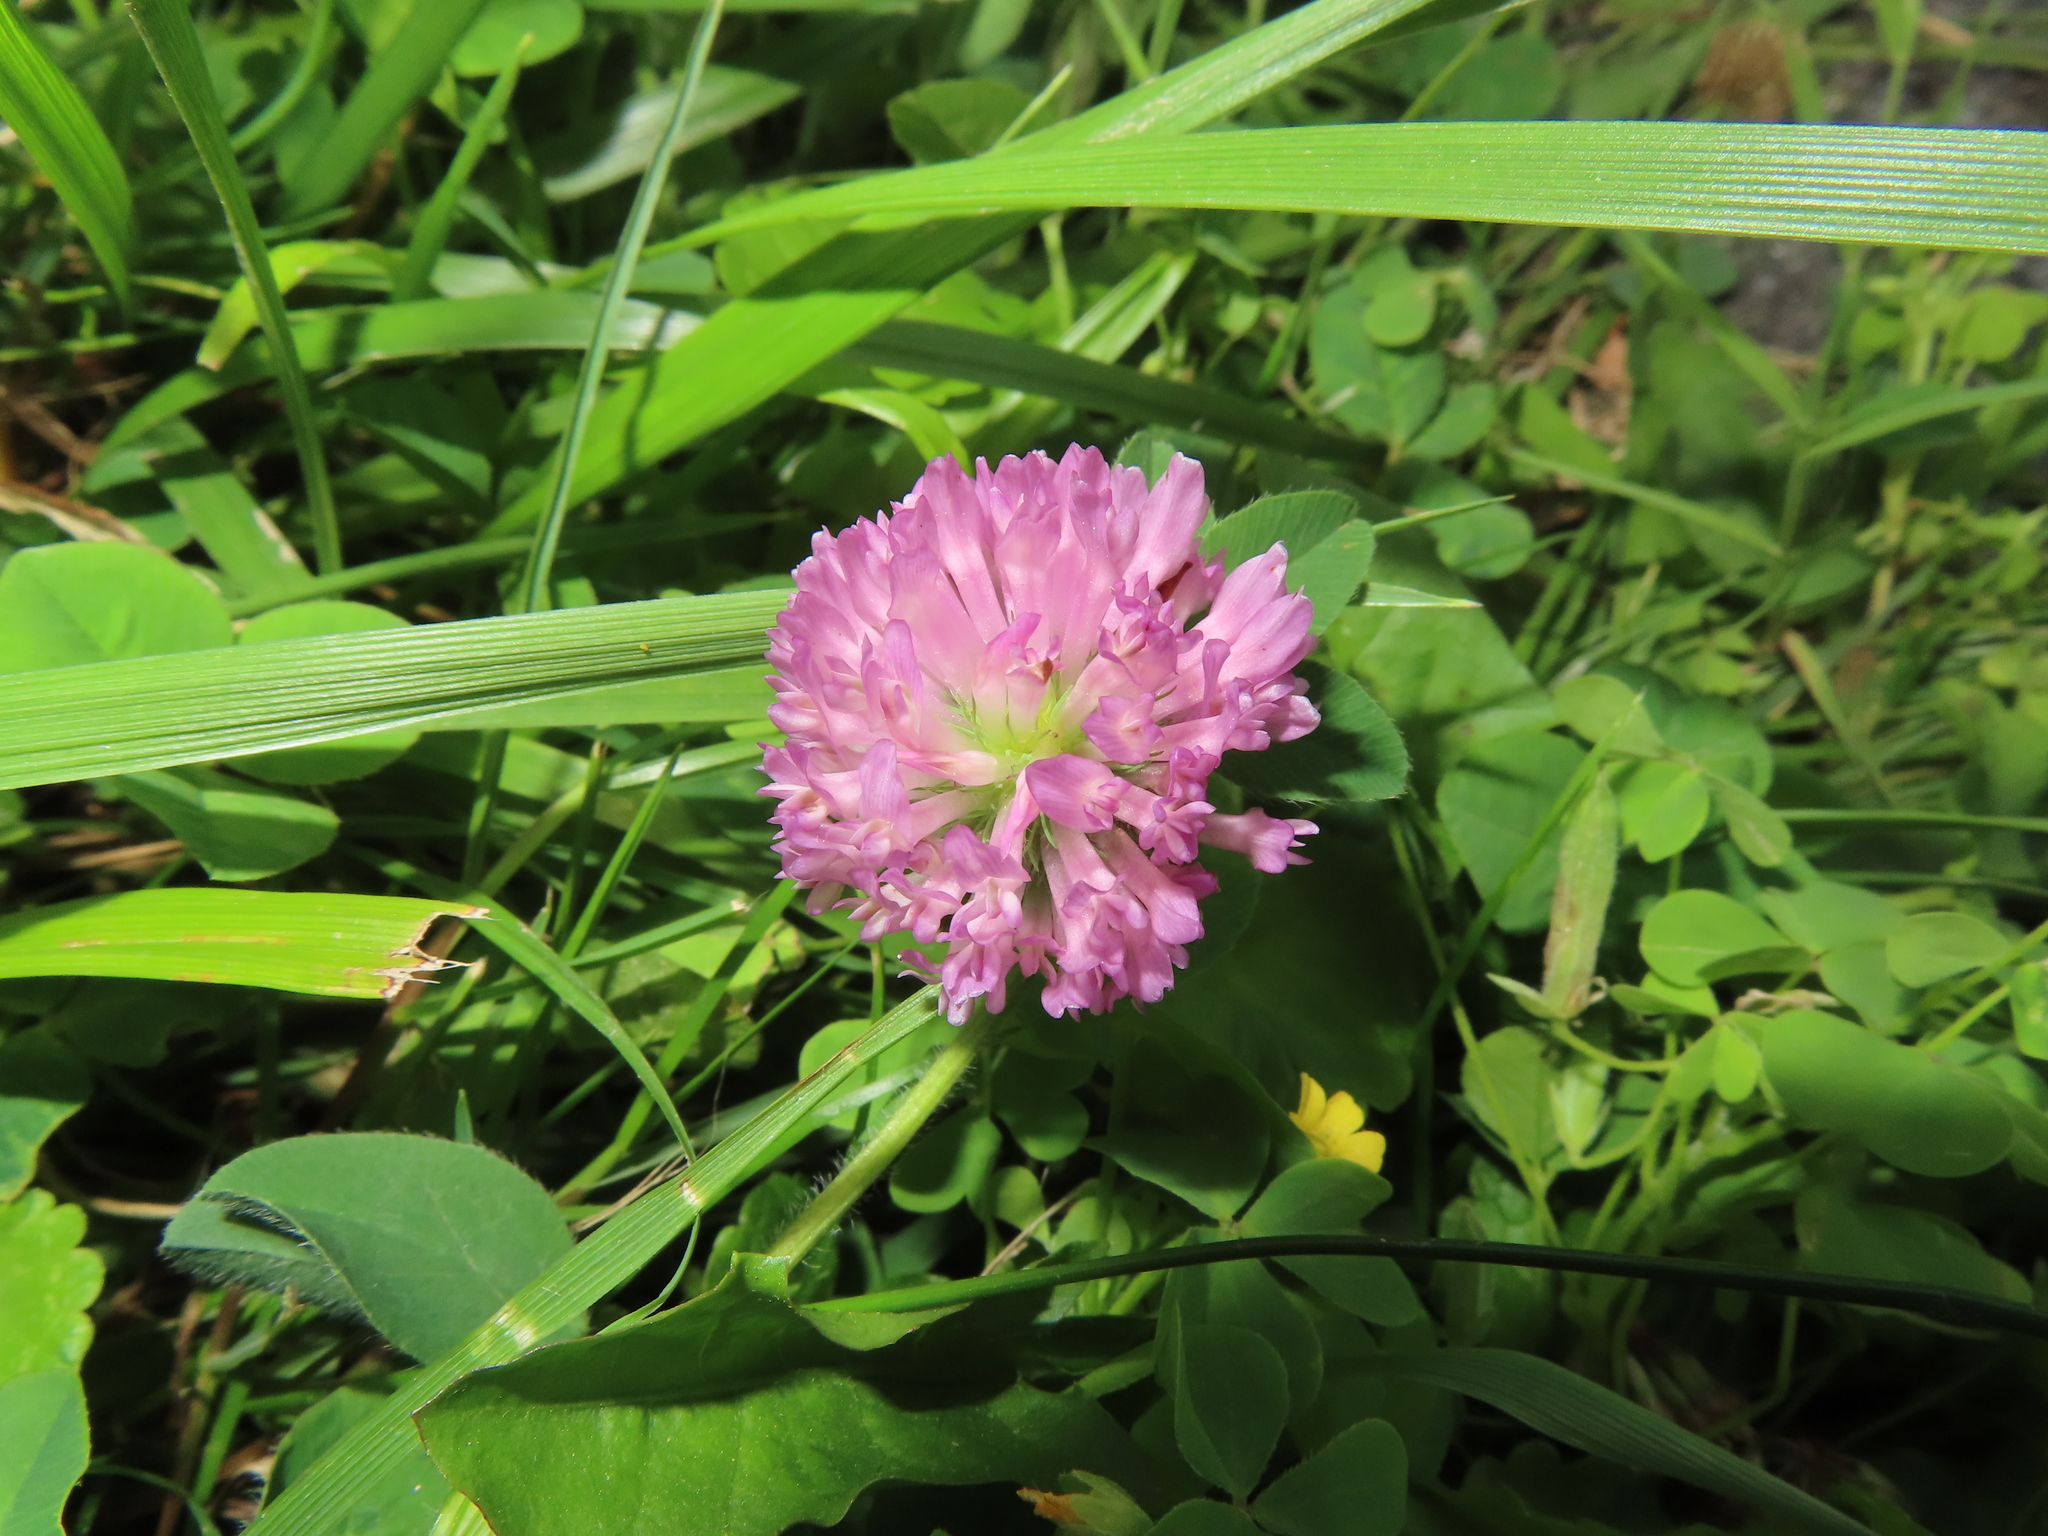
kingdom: Plantae
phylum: Tracheophyta
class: Magnoliopsida
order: Fabales
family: Fabaceae
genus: Trifolium
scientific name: Trifolium pratense
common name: Red clover
